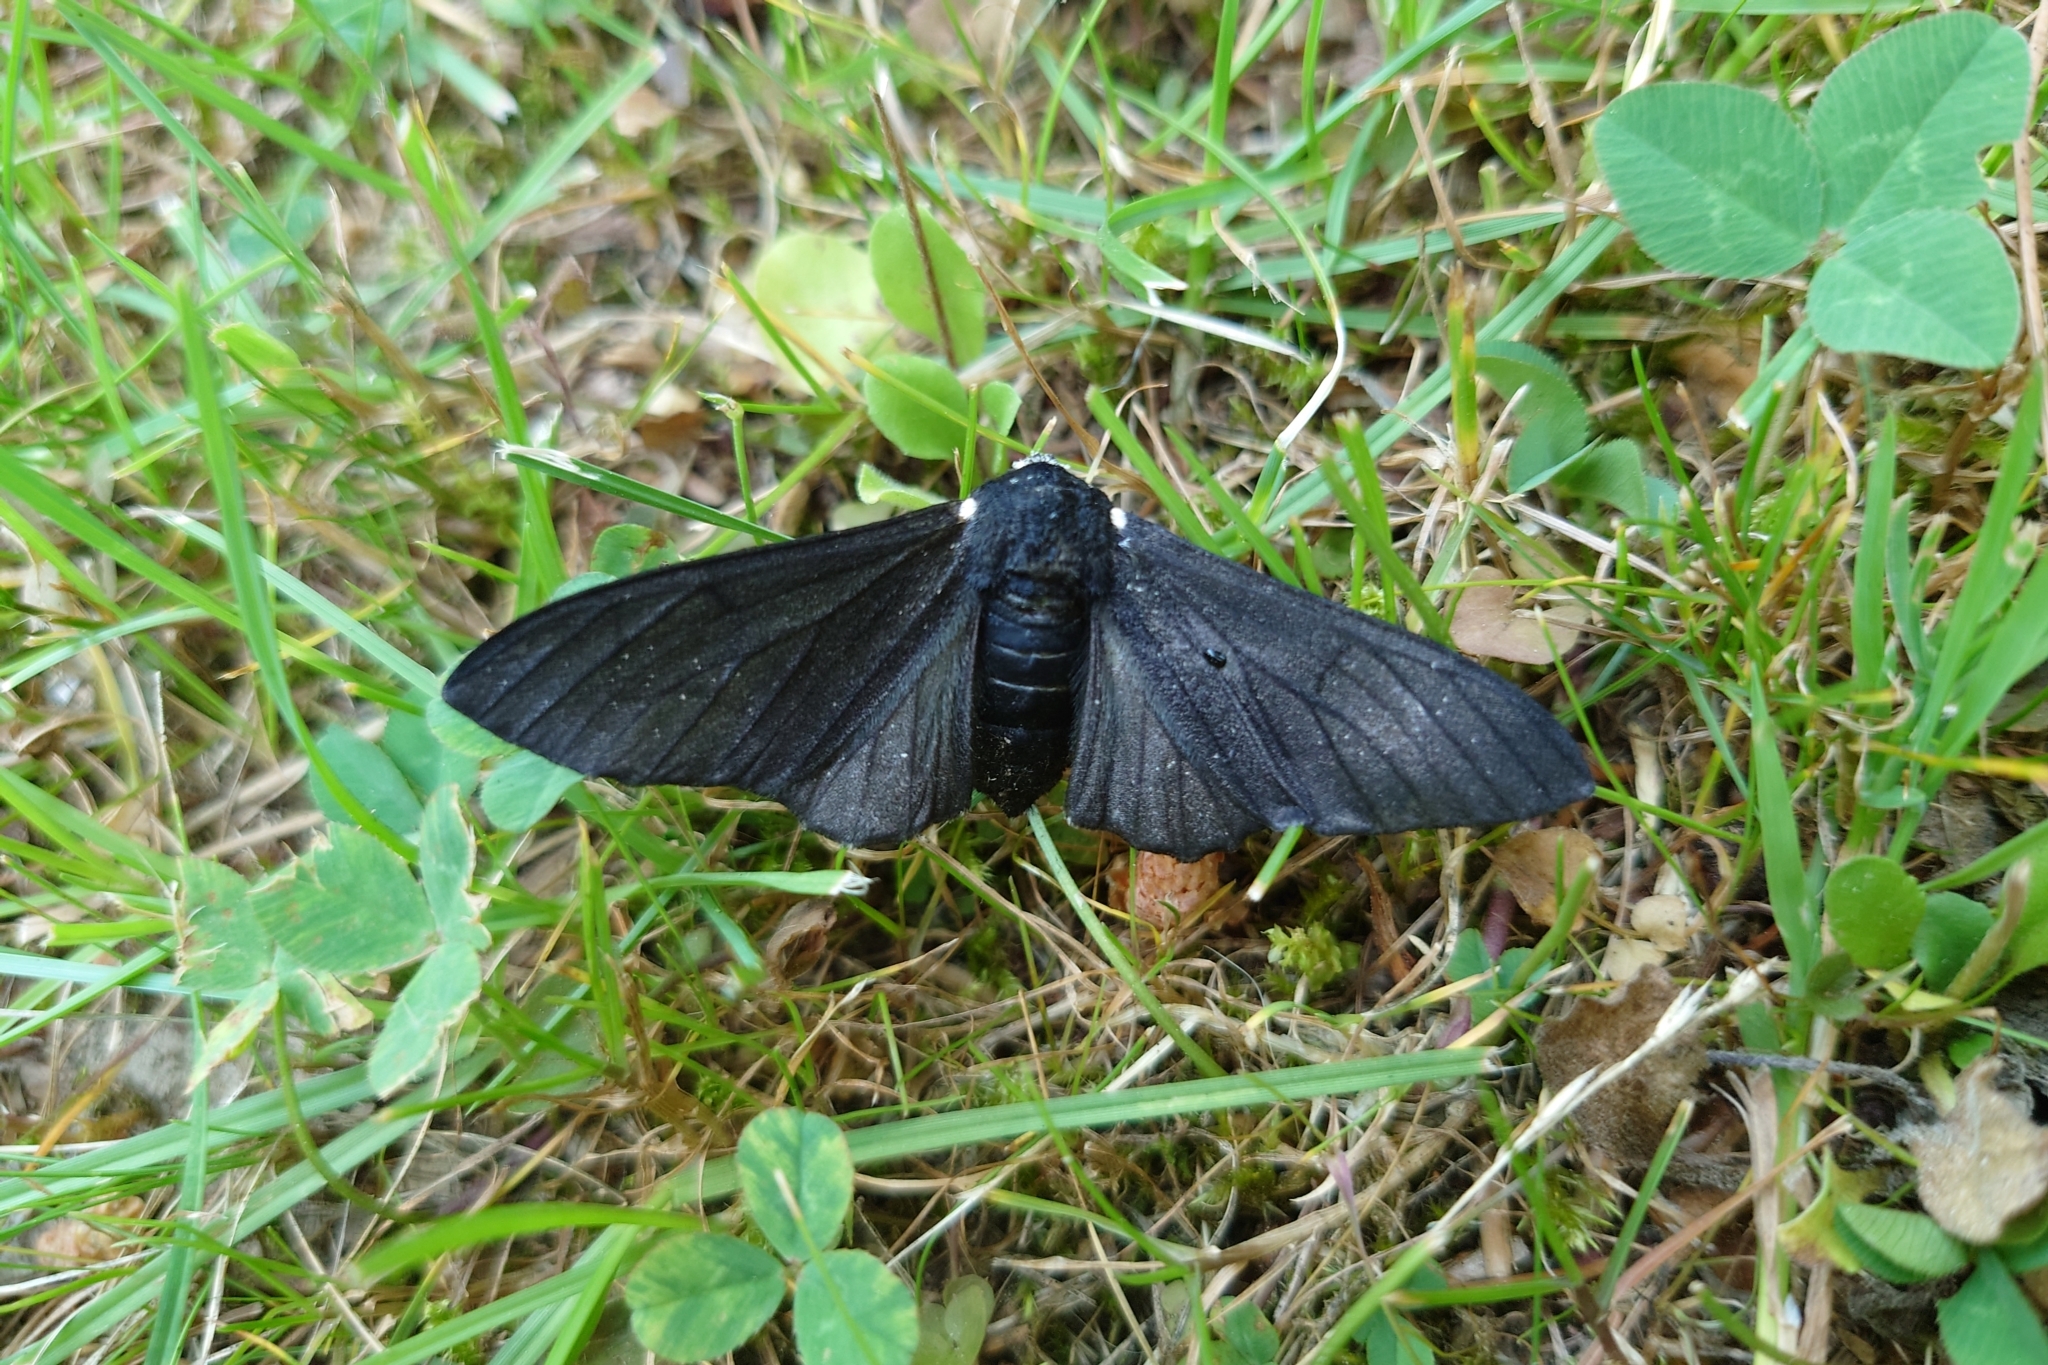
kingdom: Animalia
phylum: Arthropoda
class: Insecta
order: Lepidoptera
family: Geometridae
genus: Biston
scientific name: Biston betularia
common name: Peppered moth
